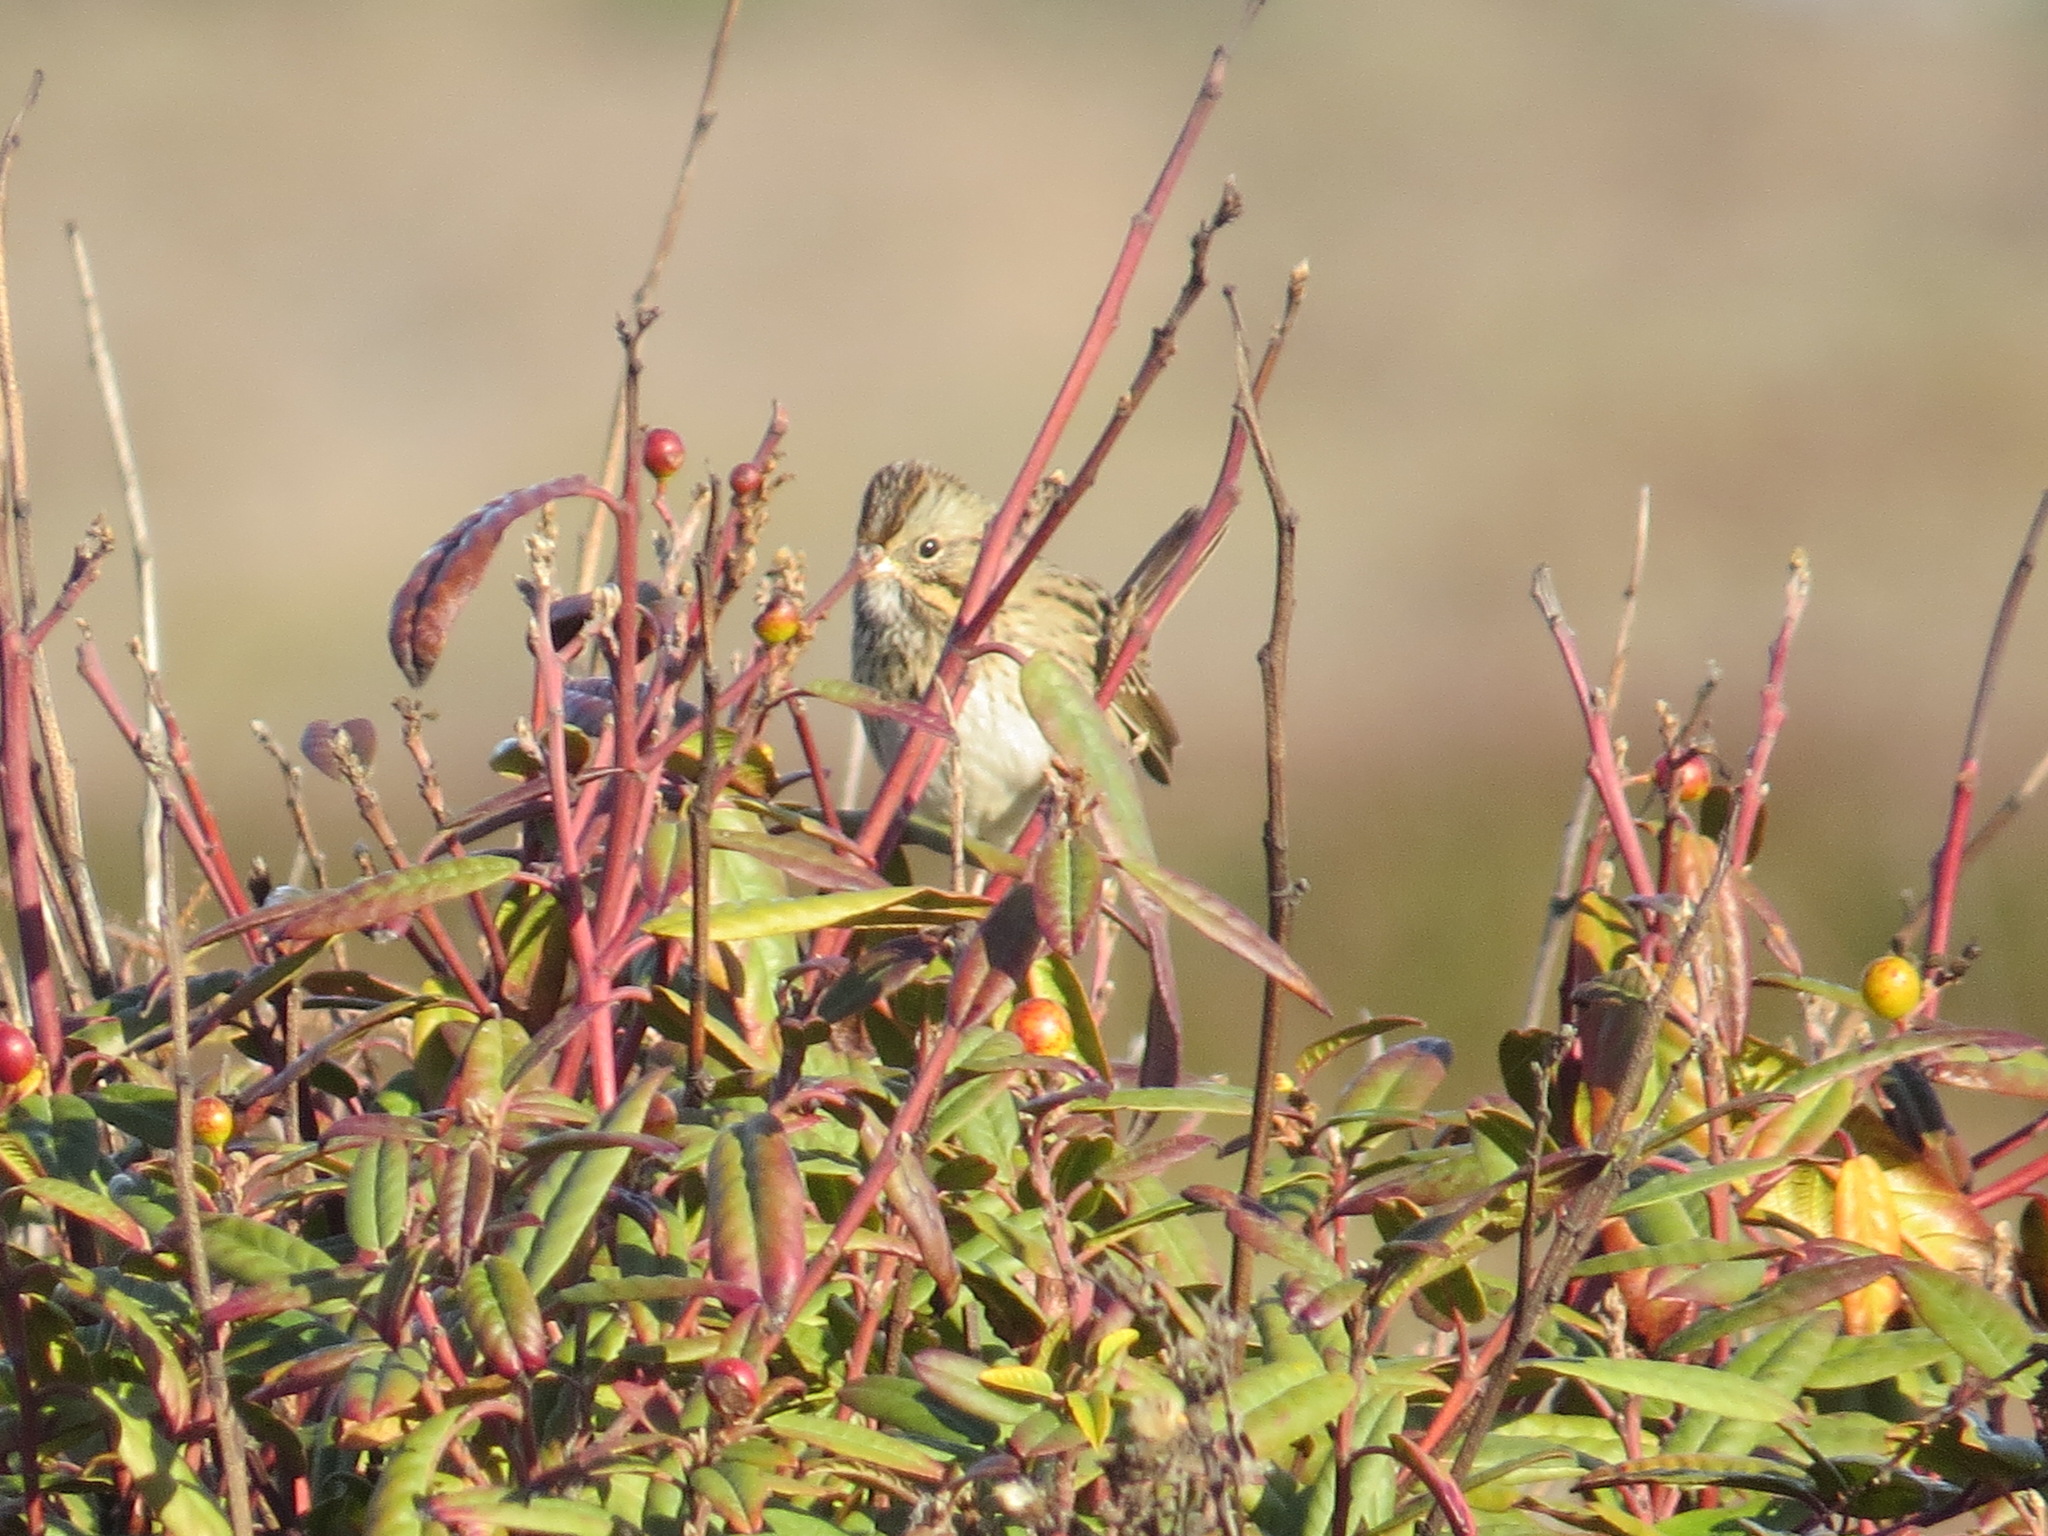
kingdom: Animalia
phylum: Chordata
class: Aves
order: Passeriformes
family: Passerellidae
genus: Melospiza
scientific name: Melospiza lincolnii
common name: Lincoln's sparrow
